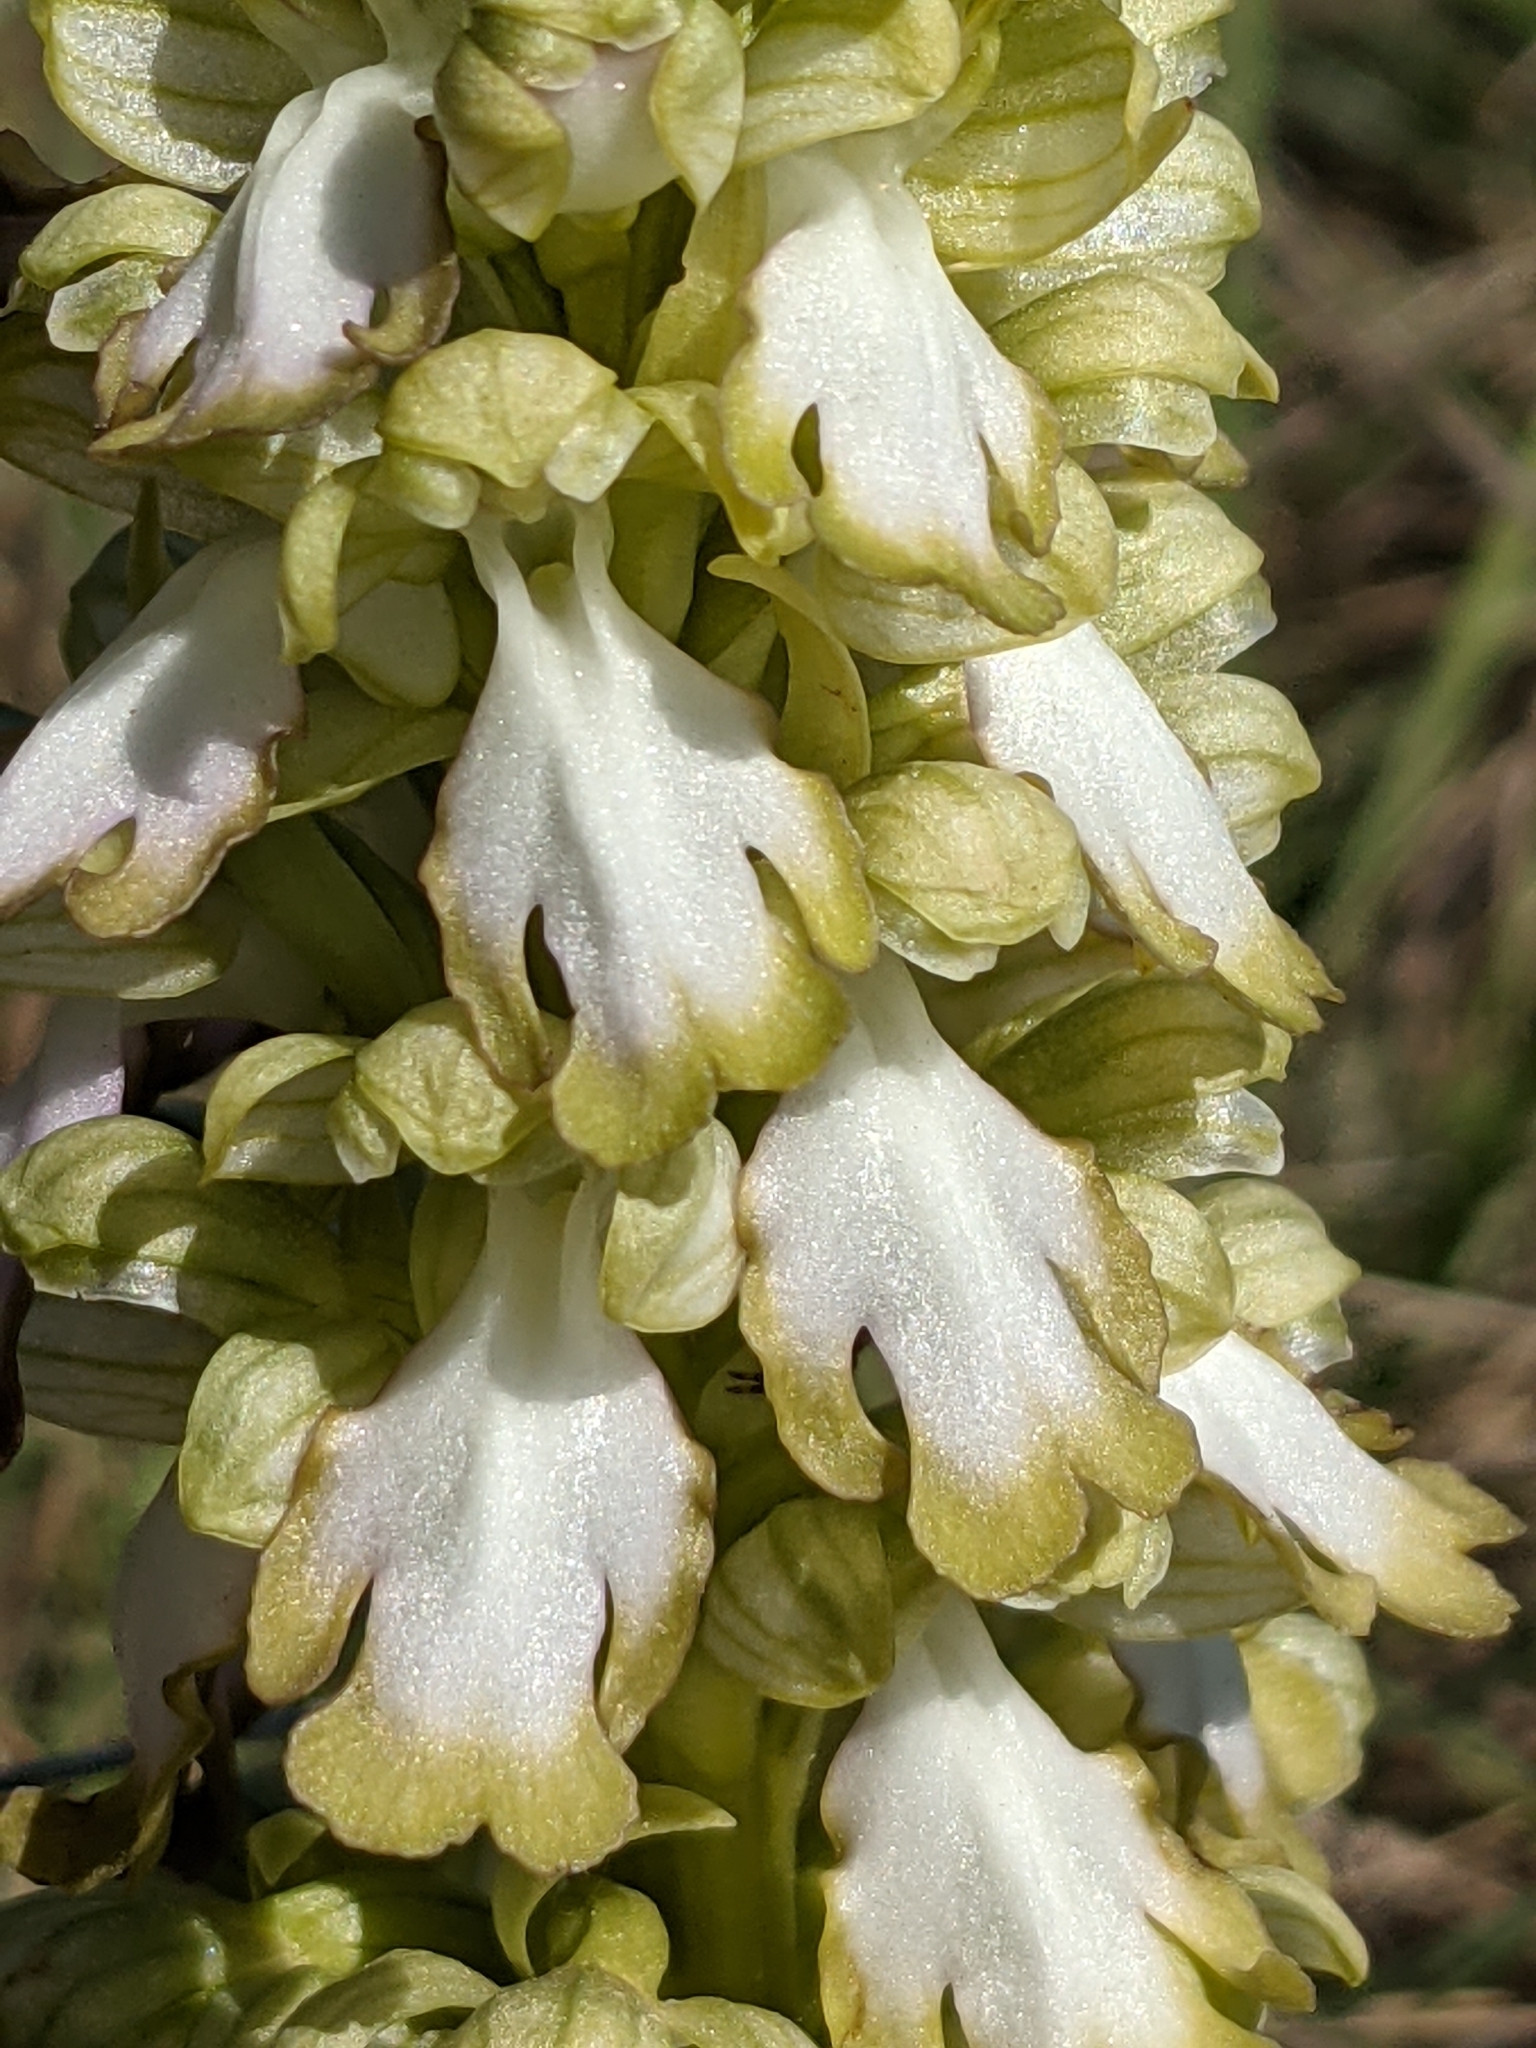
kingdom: Plantae
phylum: Tracheophyta
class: Liliopsida
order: Asparagales
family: Orchidaceae
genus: Himantoglossum
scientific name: Himantoglossum robertianum
